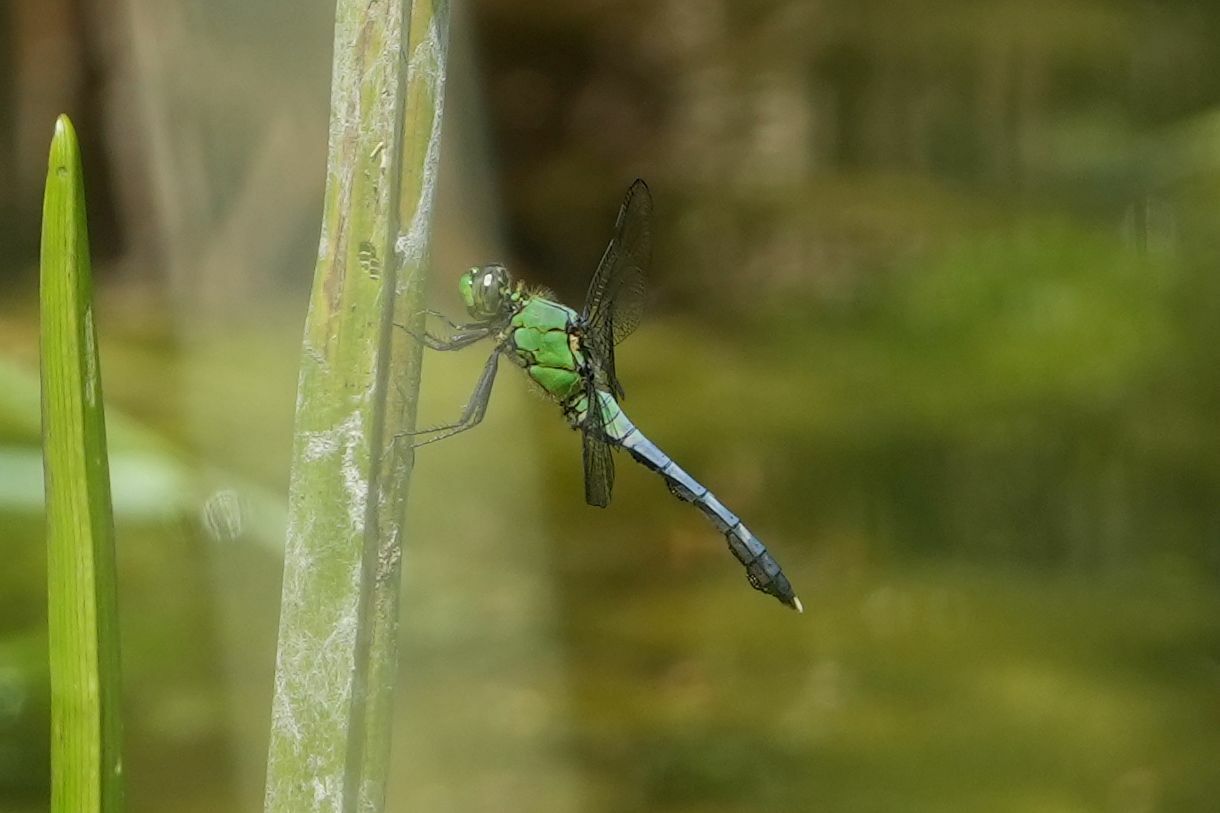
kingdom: Animalia
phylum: Arthropoda
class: Insecta
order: Odonata
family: Libellulidae
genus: Erythemis
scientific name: Erythemis simplicicollis
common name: Eastern pondhawk
